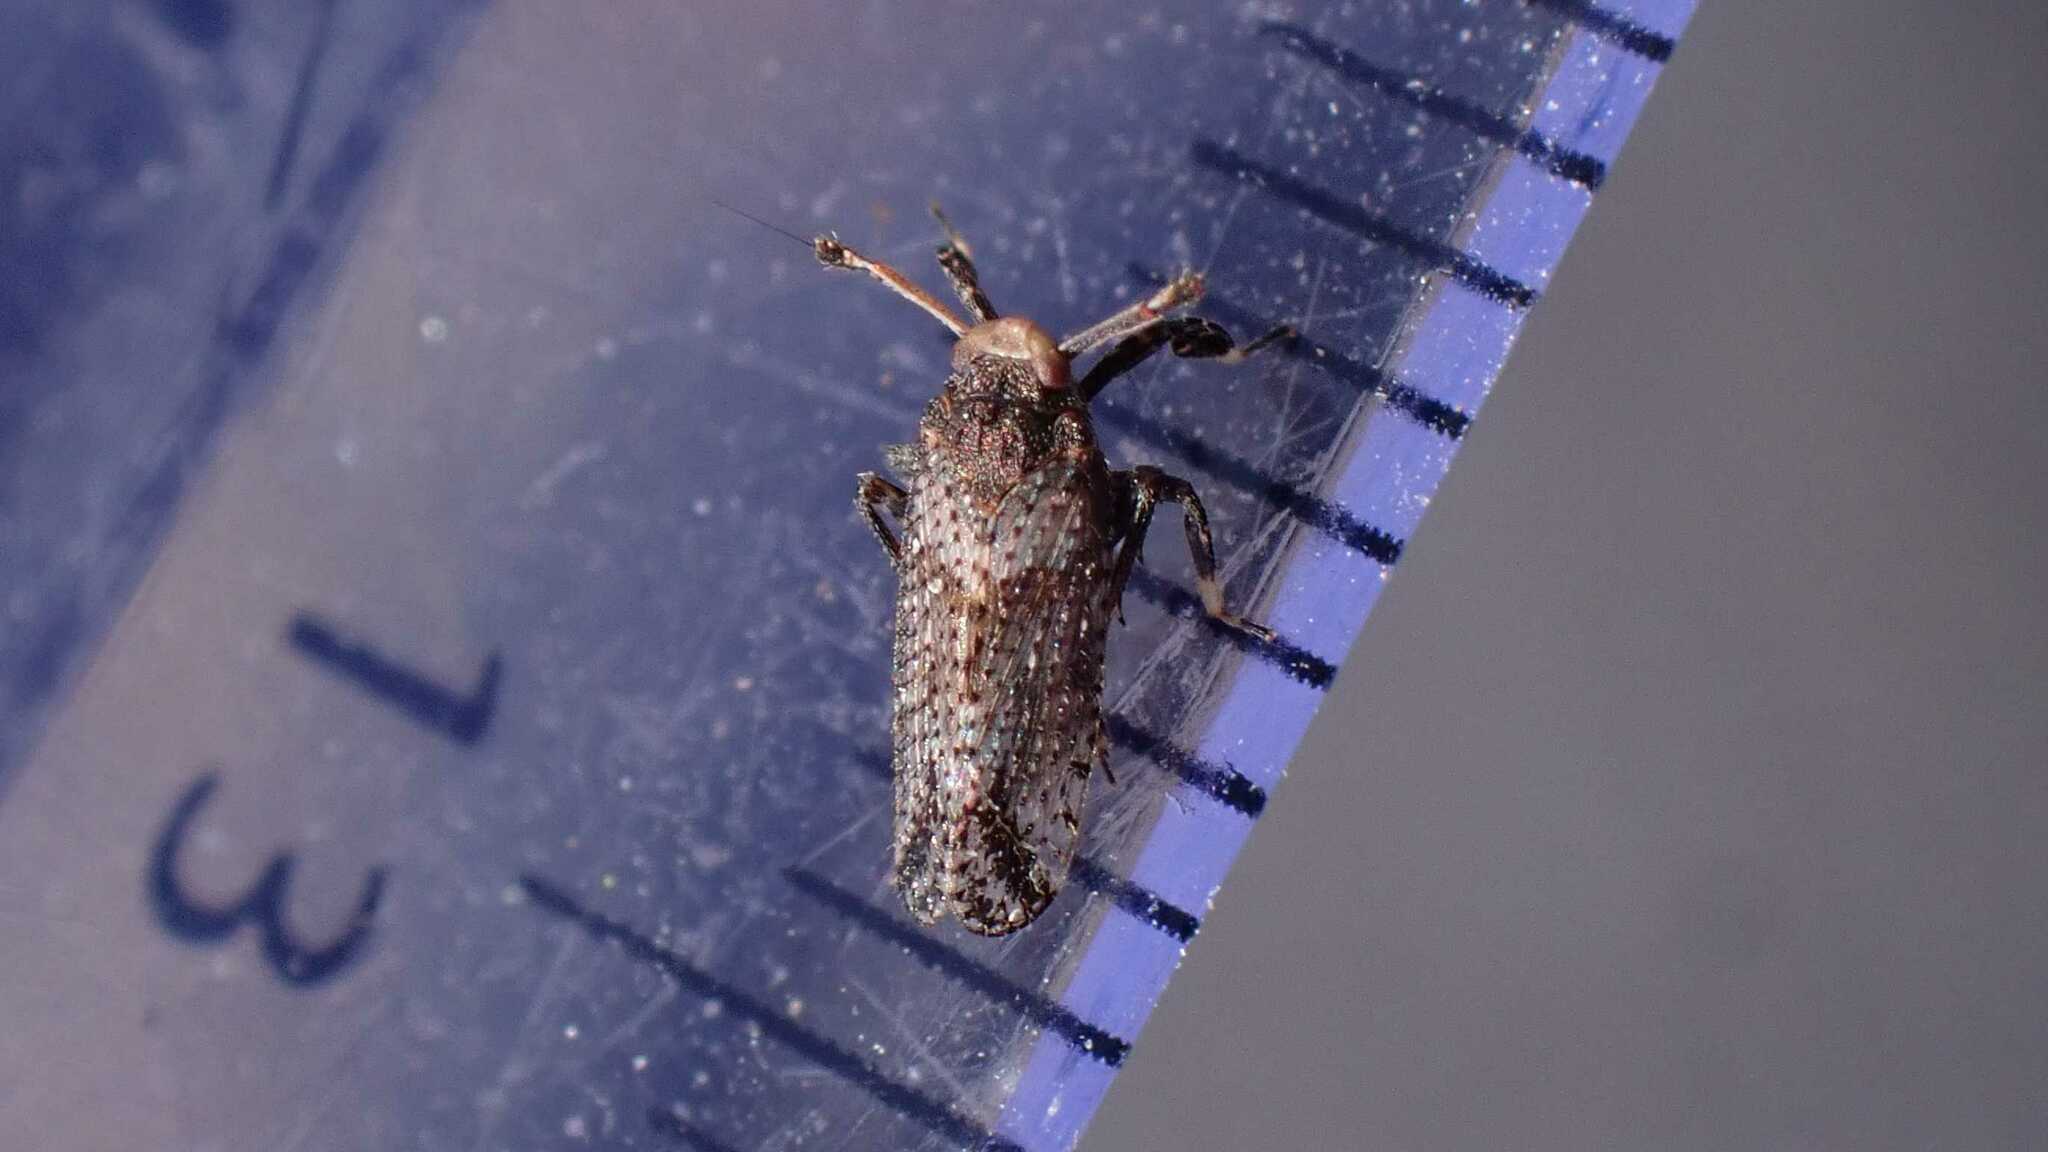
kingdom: Animalia
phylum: Arthropoda
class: Insecta
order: Hemiptera
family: Delphacidae
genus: Asiraca
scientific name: Asiraca clavicornis
